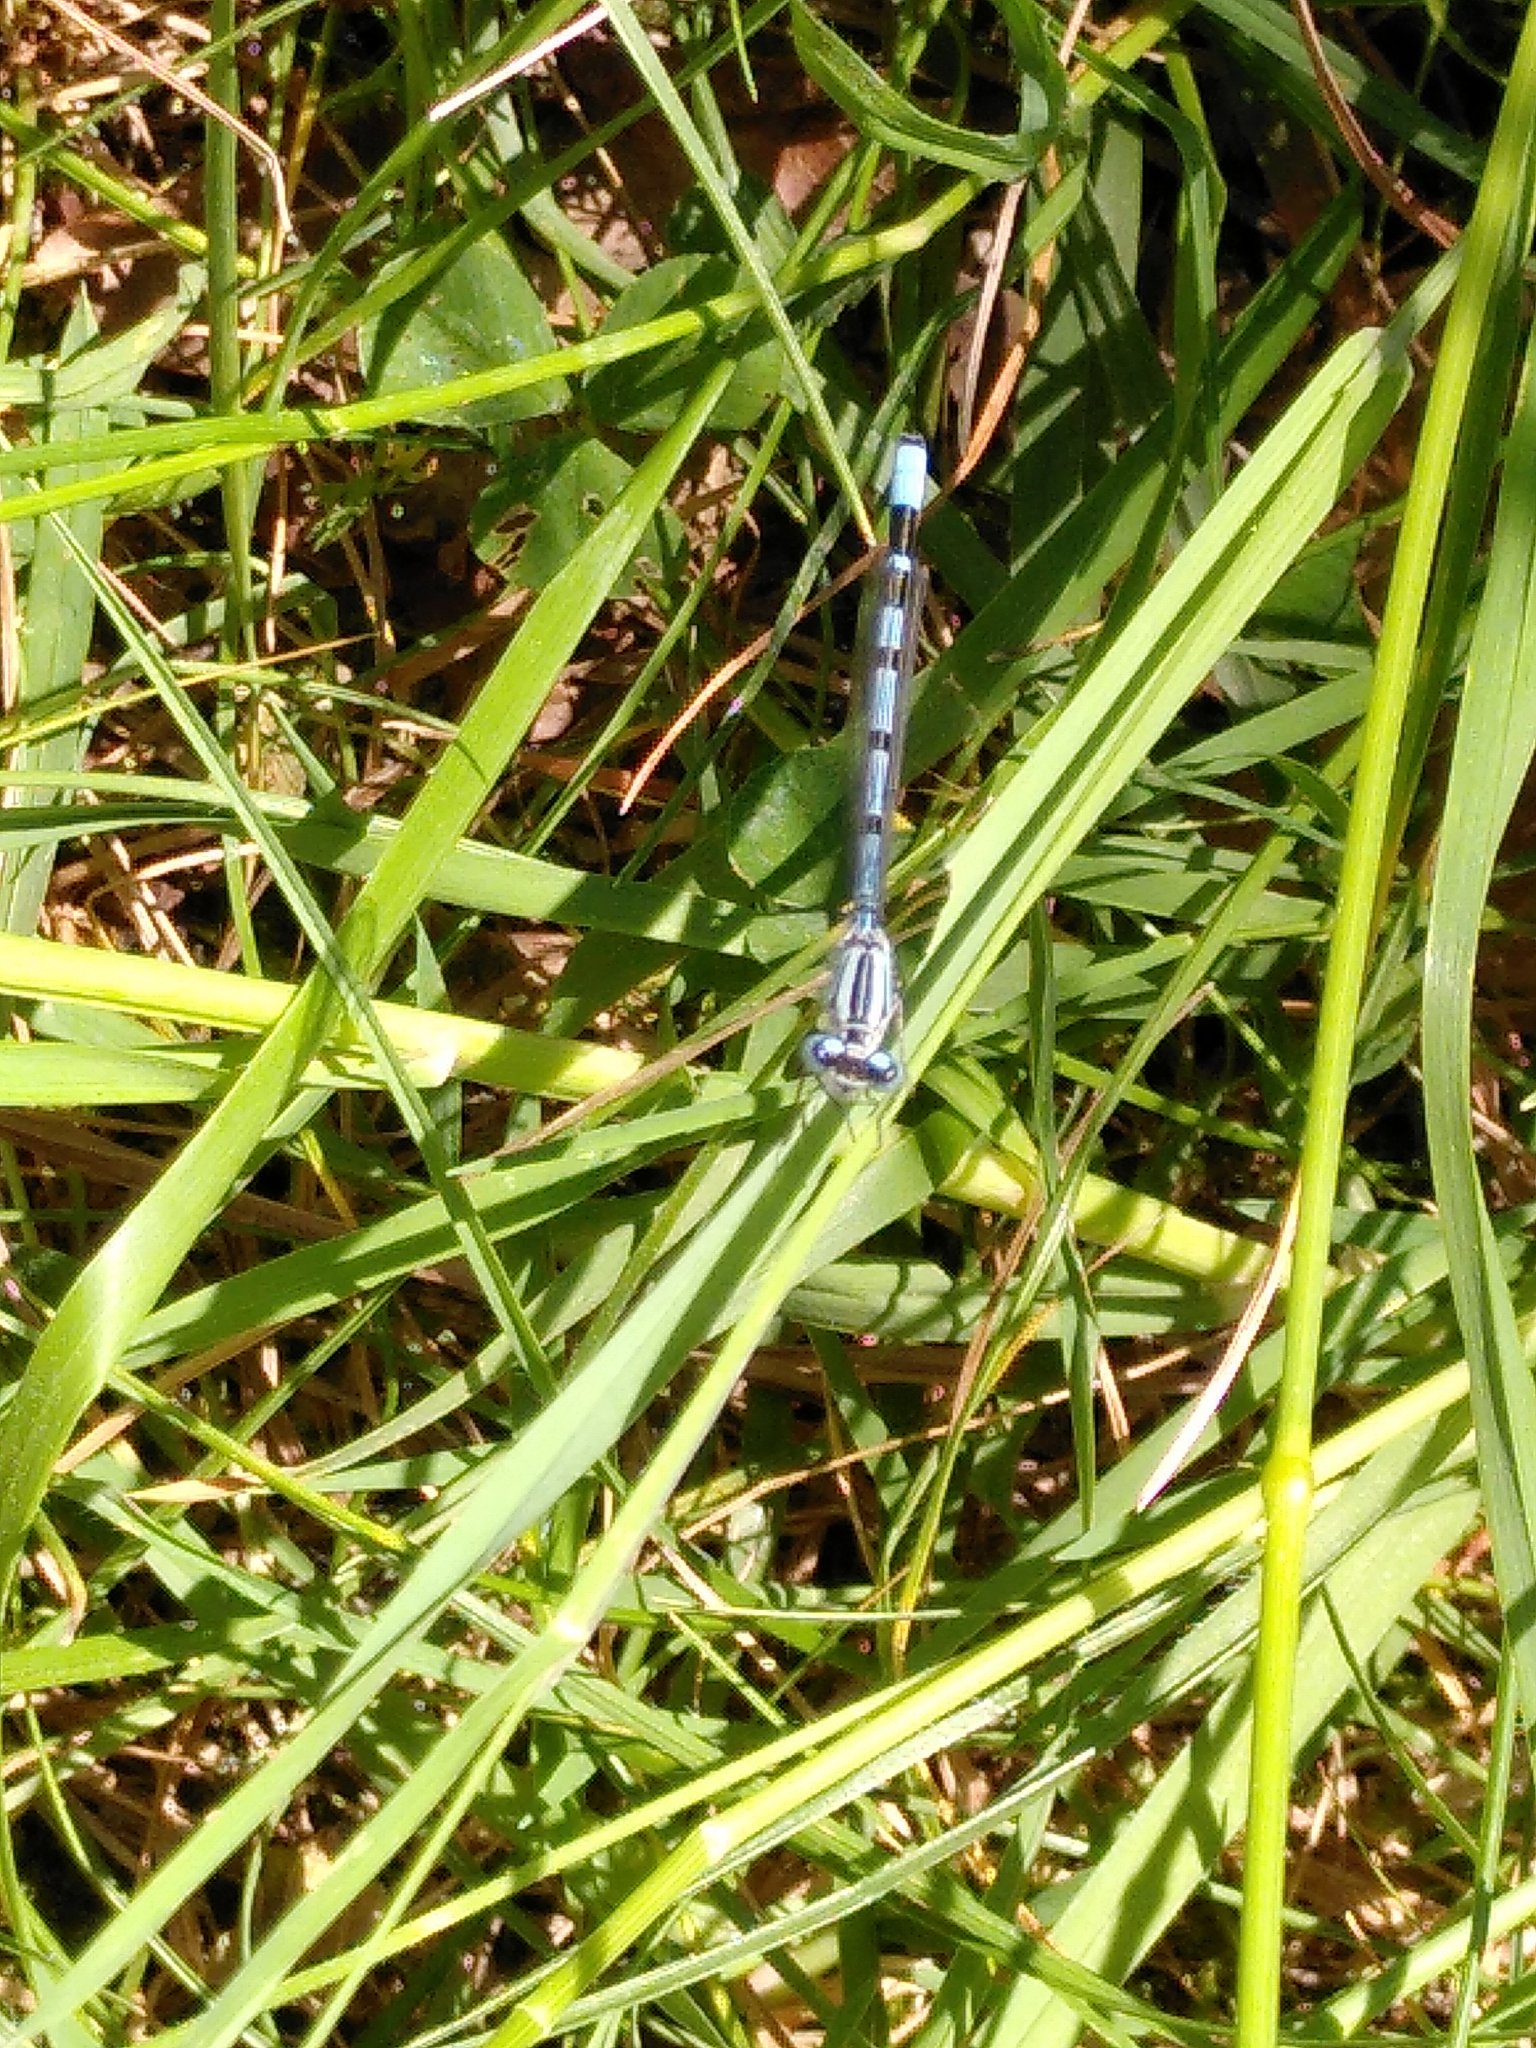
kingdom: Animalia
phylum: Arthropoda
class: Insecta
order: Odonata
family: Coenagrionidae
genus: Enallagma
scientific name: Enallagma cyathigerum
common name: Common blue damselfly
